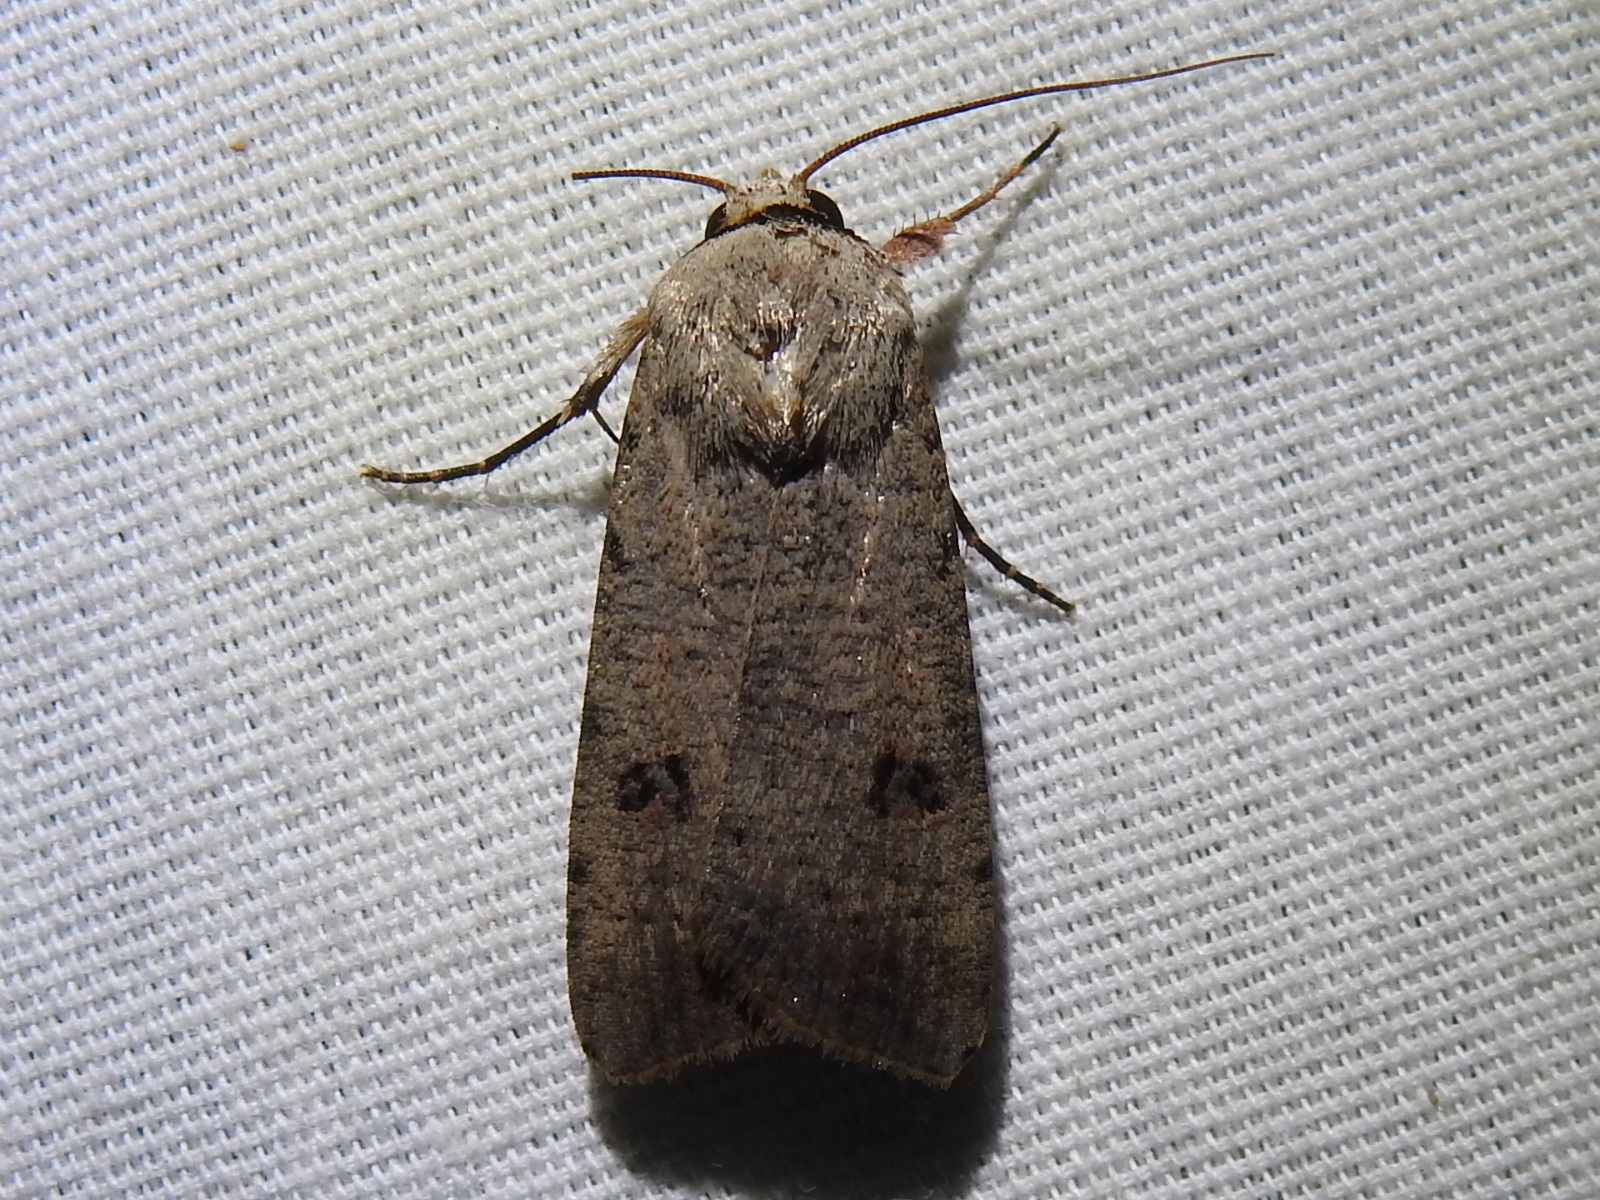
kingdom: Animalia
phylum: Arthropoda
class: Insecta
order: Lepidoptera
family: Noctuidae
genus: Anicla
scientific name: Anicla infecta
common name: Green cutworm
